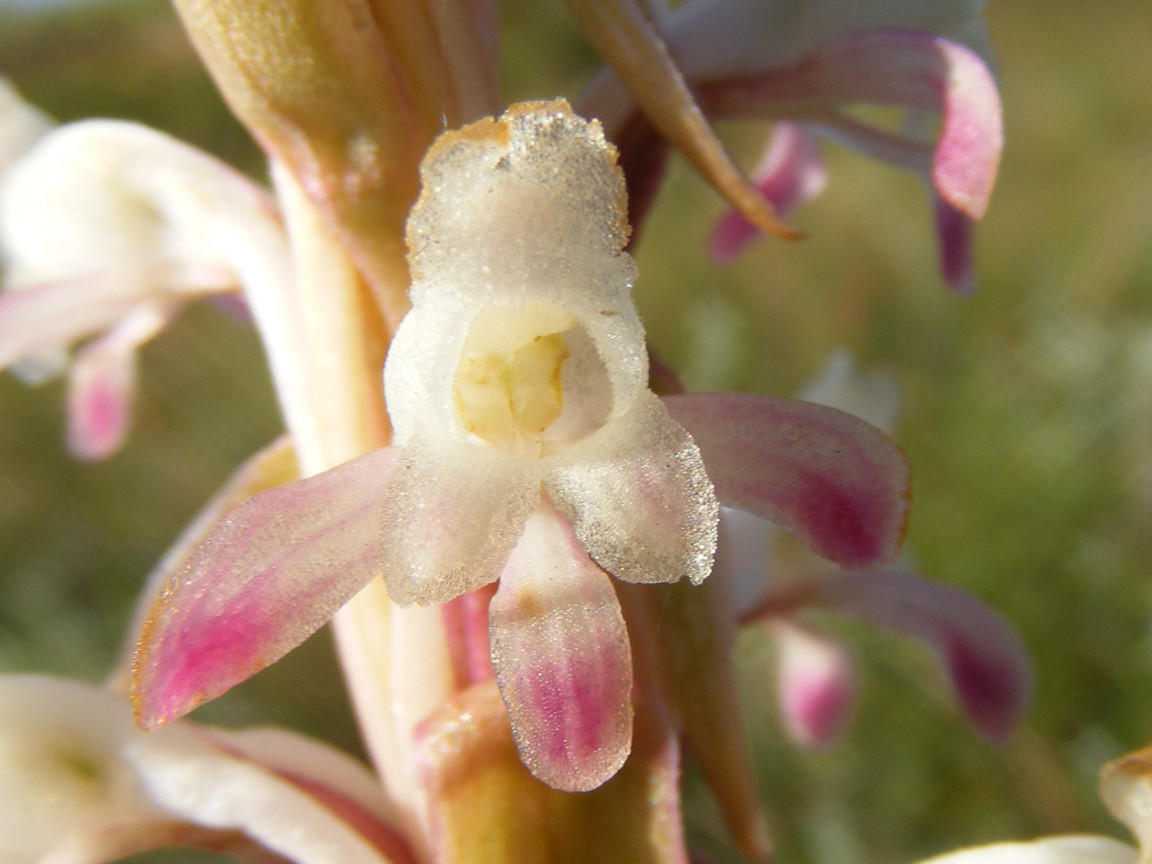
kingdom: Plantae
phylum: Tracheophyta
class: Liliopsida
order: Asparagales
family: Orchidaceae
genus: Satyrium
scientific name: Satyrium longicauda
